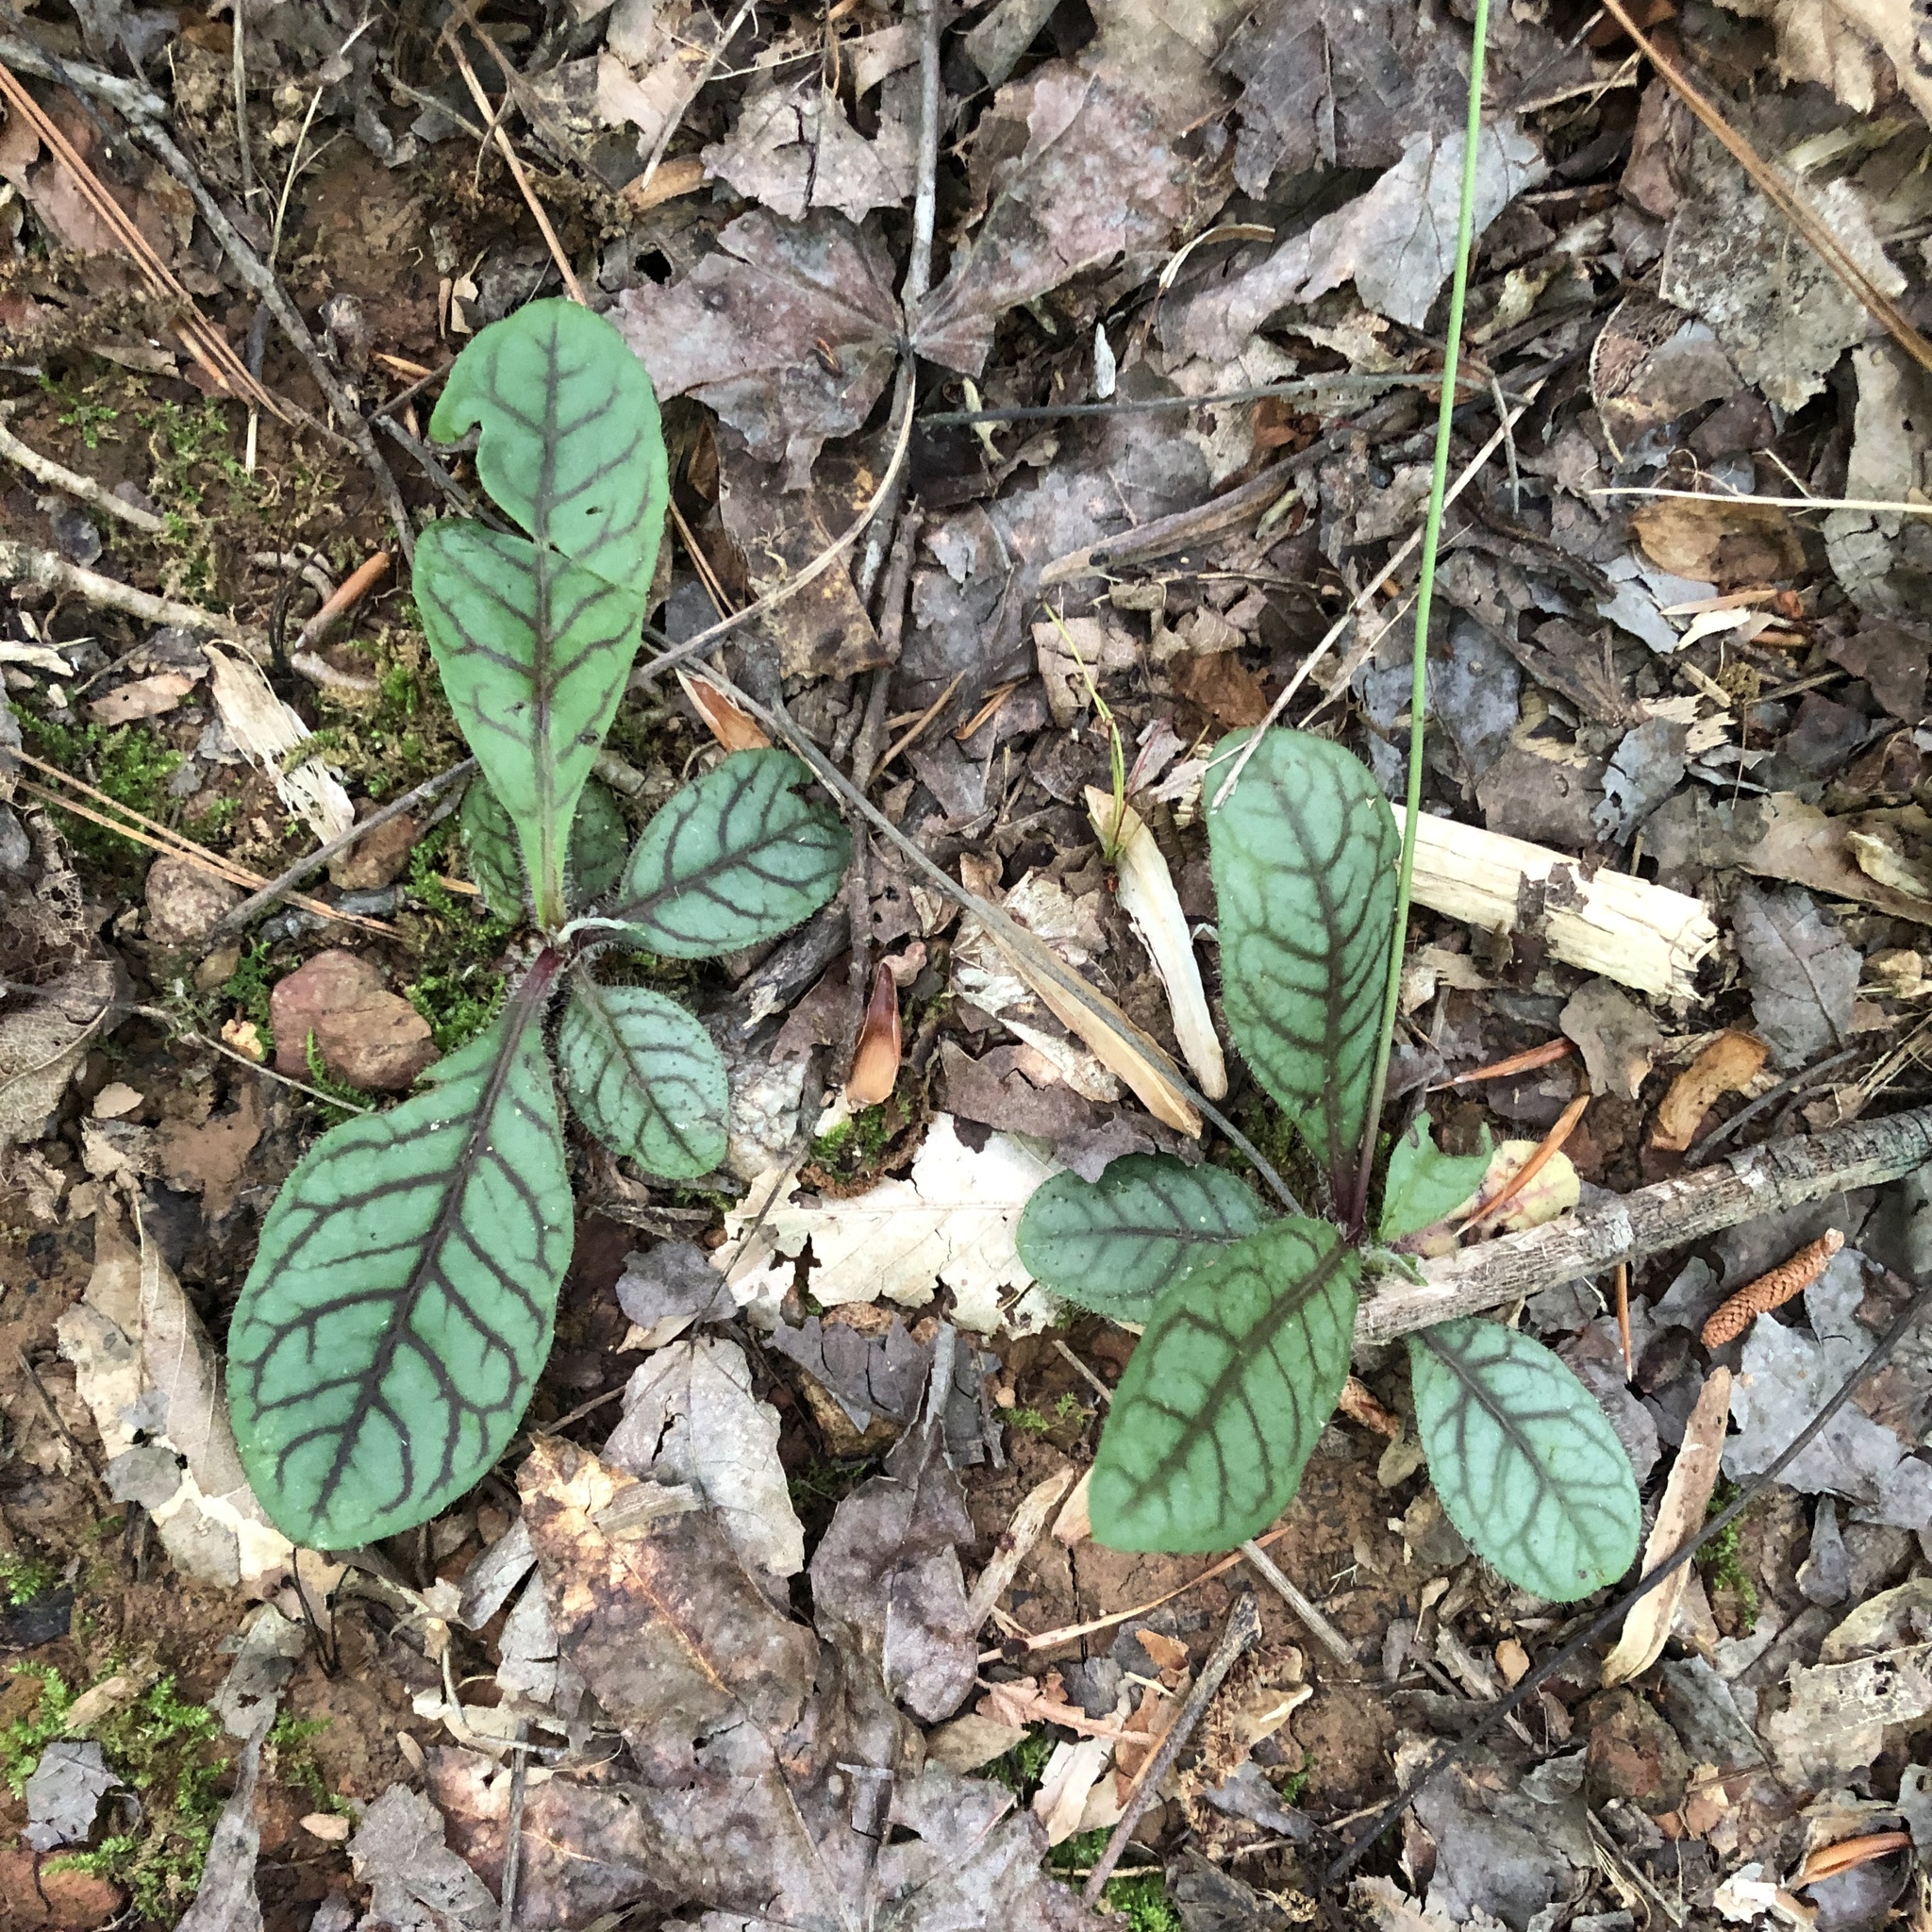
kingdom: Plantae
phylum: Tracheophyta
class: Magnoliopsida
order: Asterales
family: Asteraceae
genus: Hieracium
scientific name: Hieracium venosum
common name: Rattlesnake hawkweed
